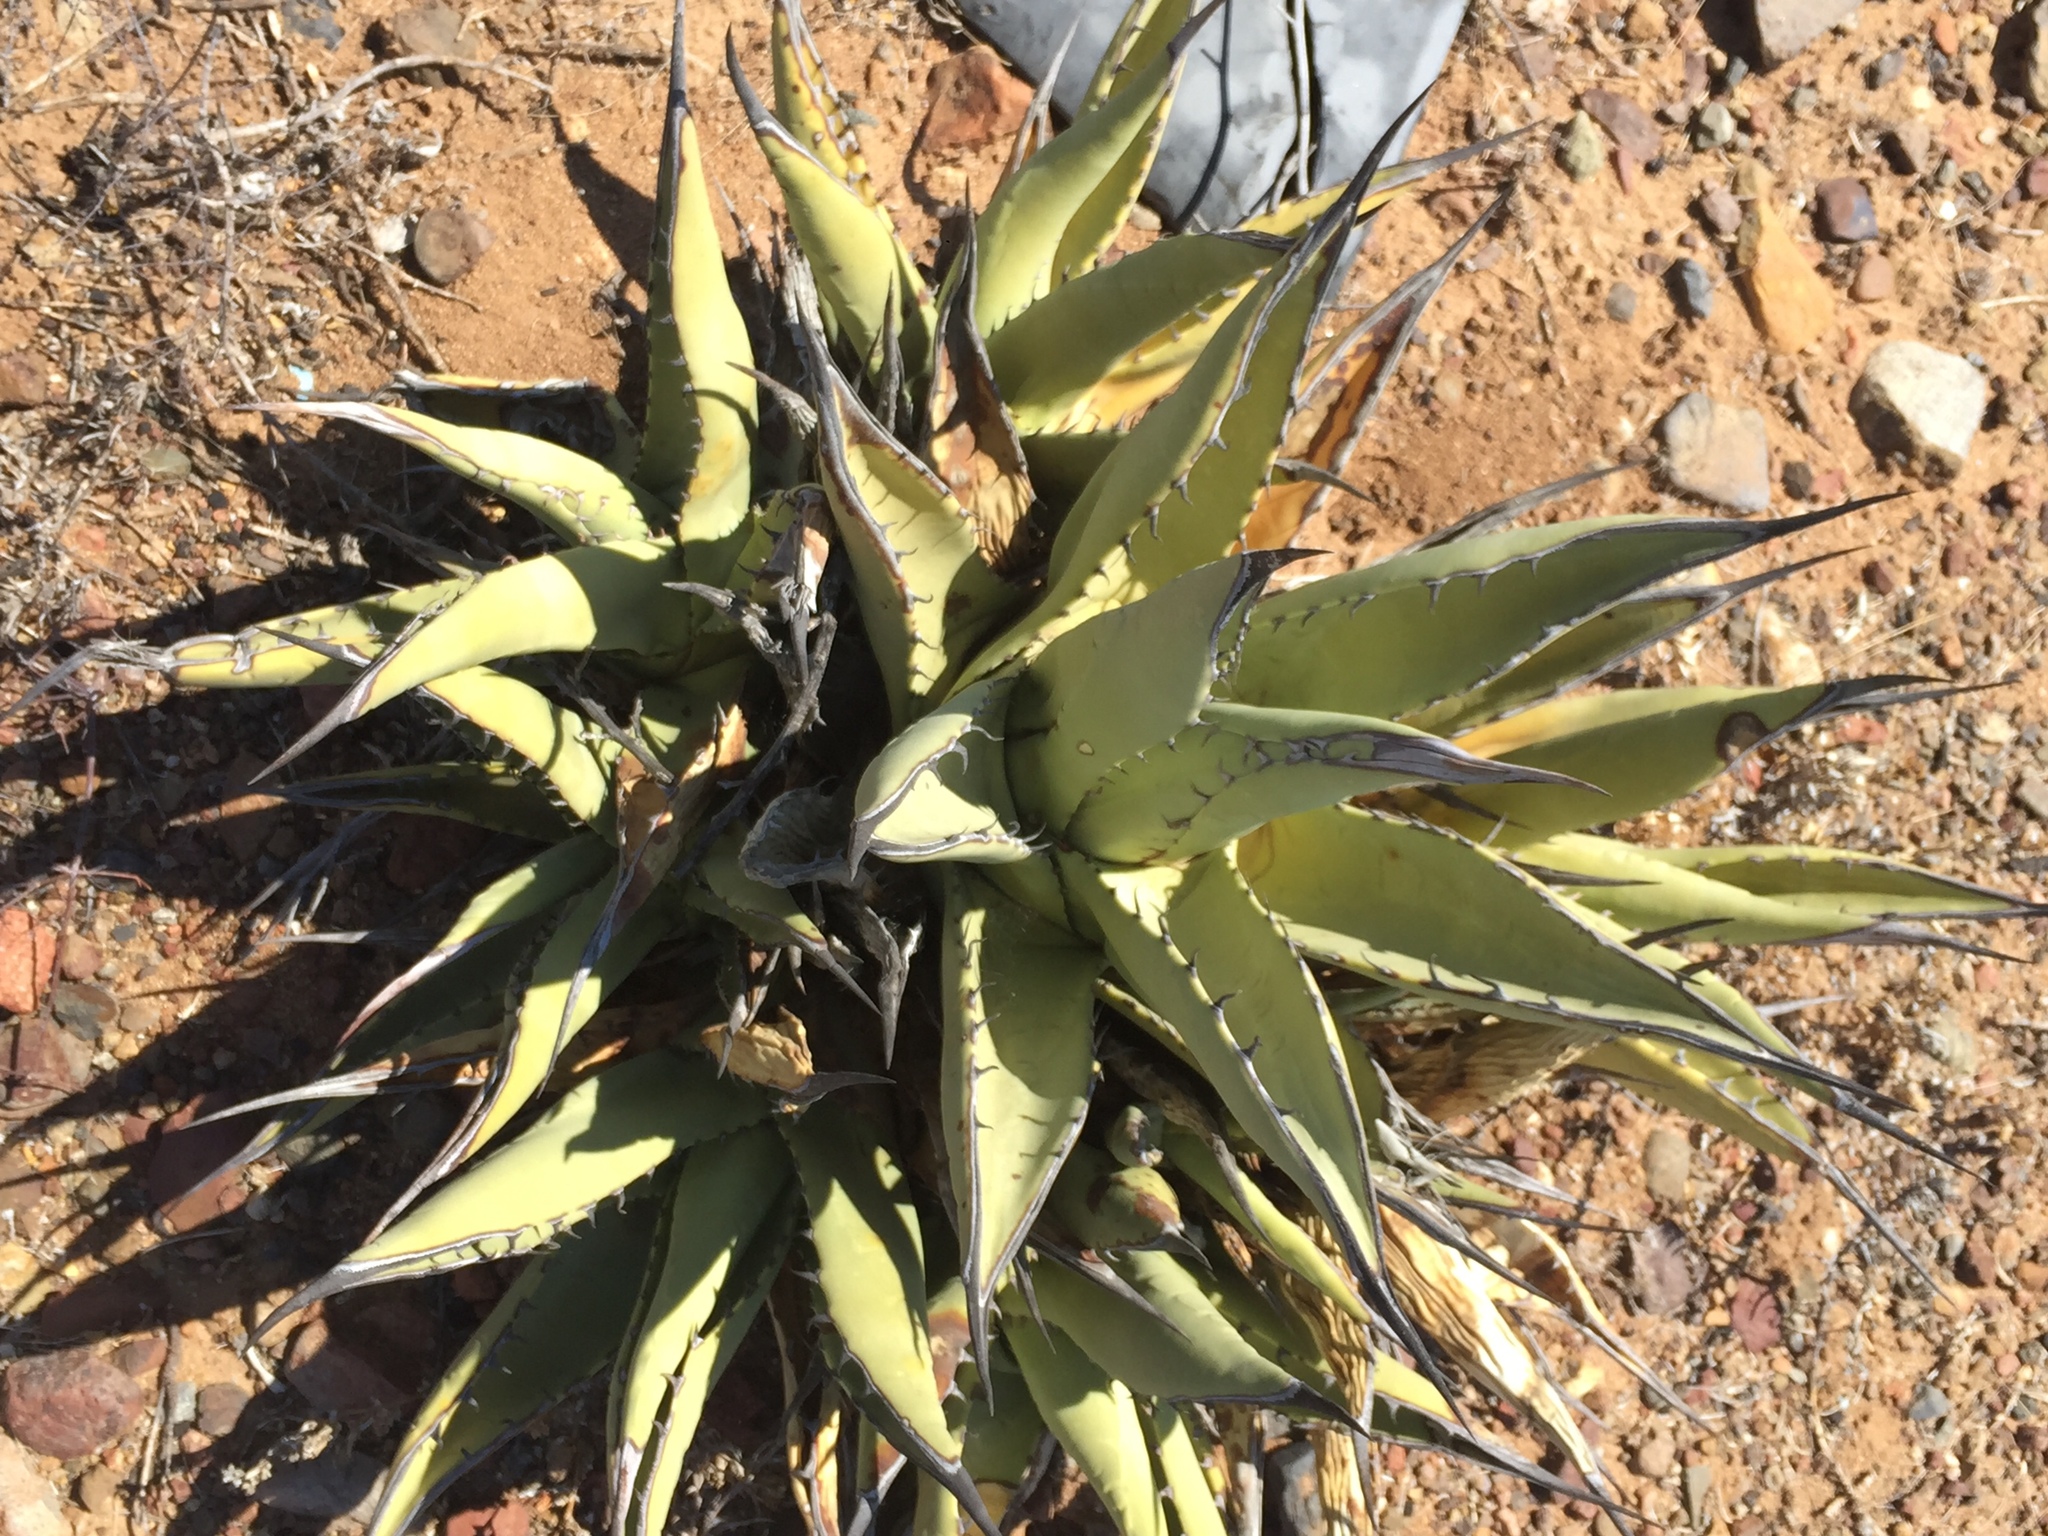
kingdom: Plantae
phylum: Tracheophyta
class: Liliopsida
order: Asparagales
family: Asparagaceae
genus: Agave
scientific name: Agave cerulata
